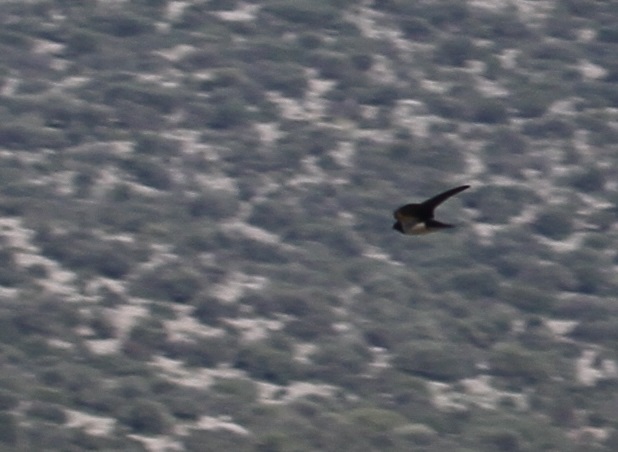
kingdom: Animalia
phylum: Chordata
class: Aves
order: Passeriformes
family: Hirundinidae
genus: Hirundo
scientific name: Hirundo rustica
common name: Barn swallow
